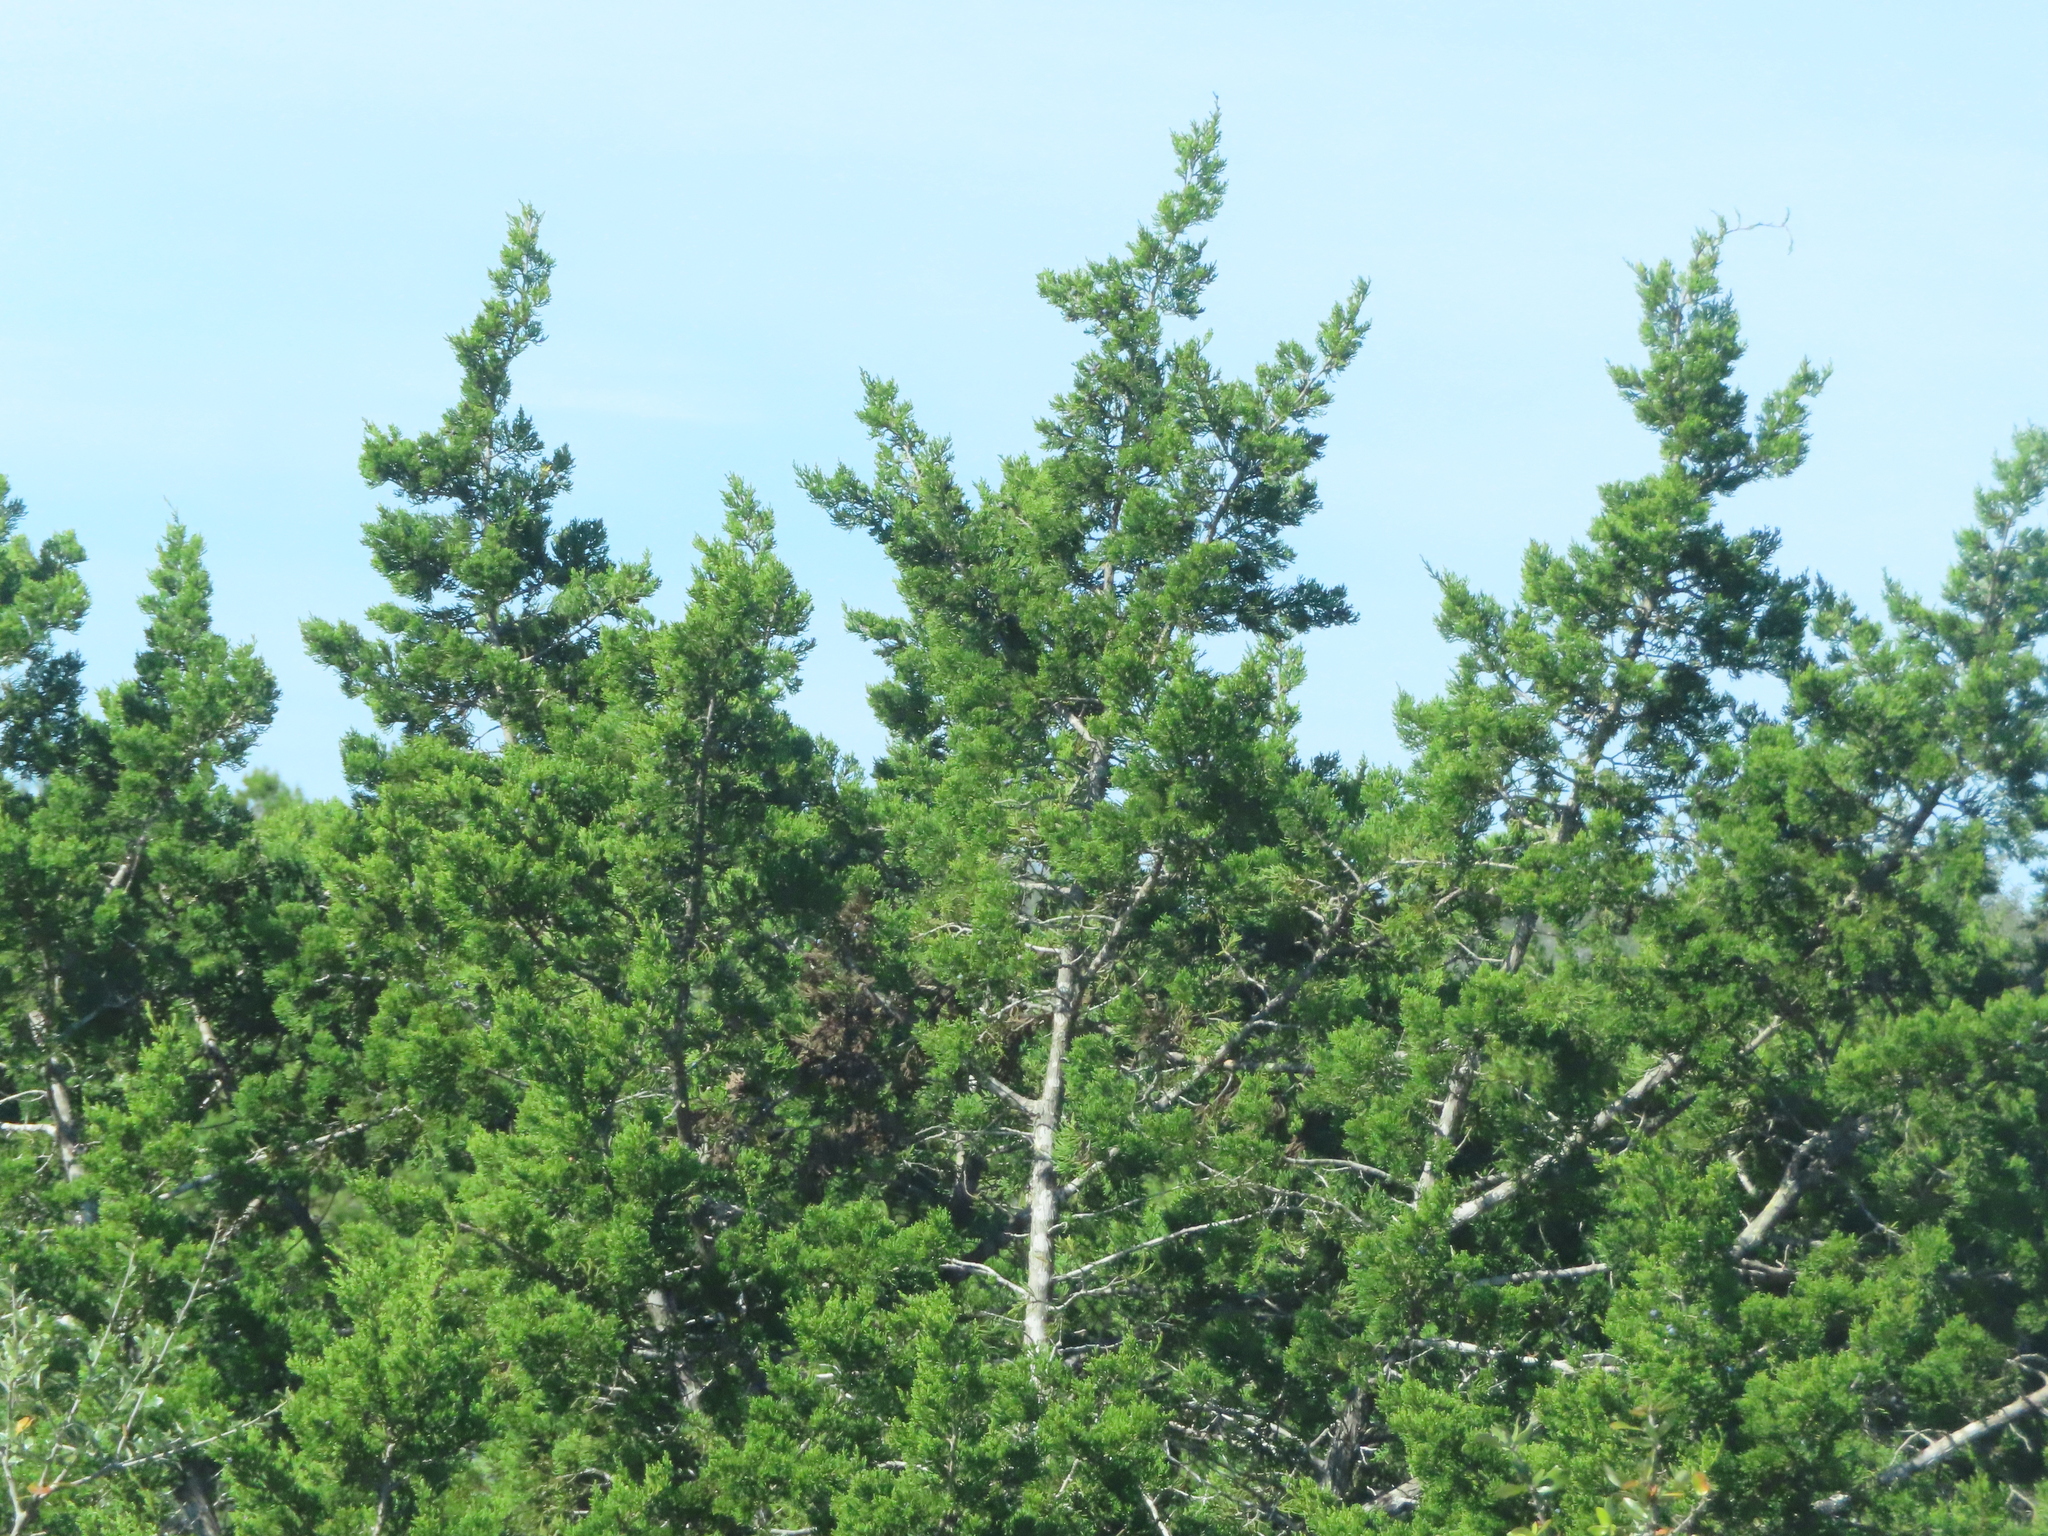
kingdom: Plantae
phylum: Tracheophyta
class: Pinopsida
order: Pinales
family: Cupressaceae
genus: Juniperus
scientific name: Juniperus ashei
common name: Mexican juniper
